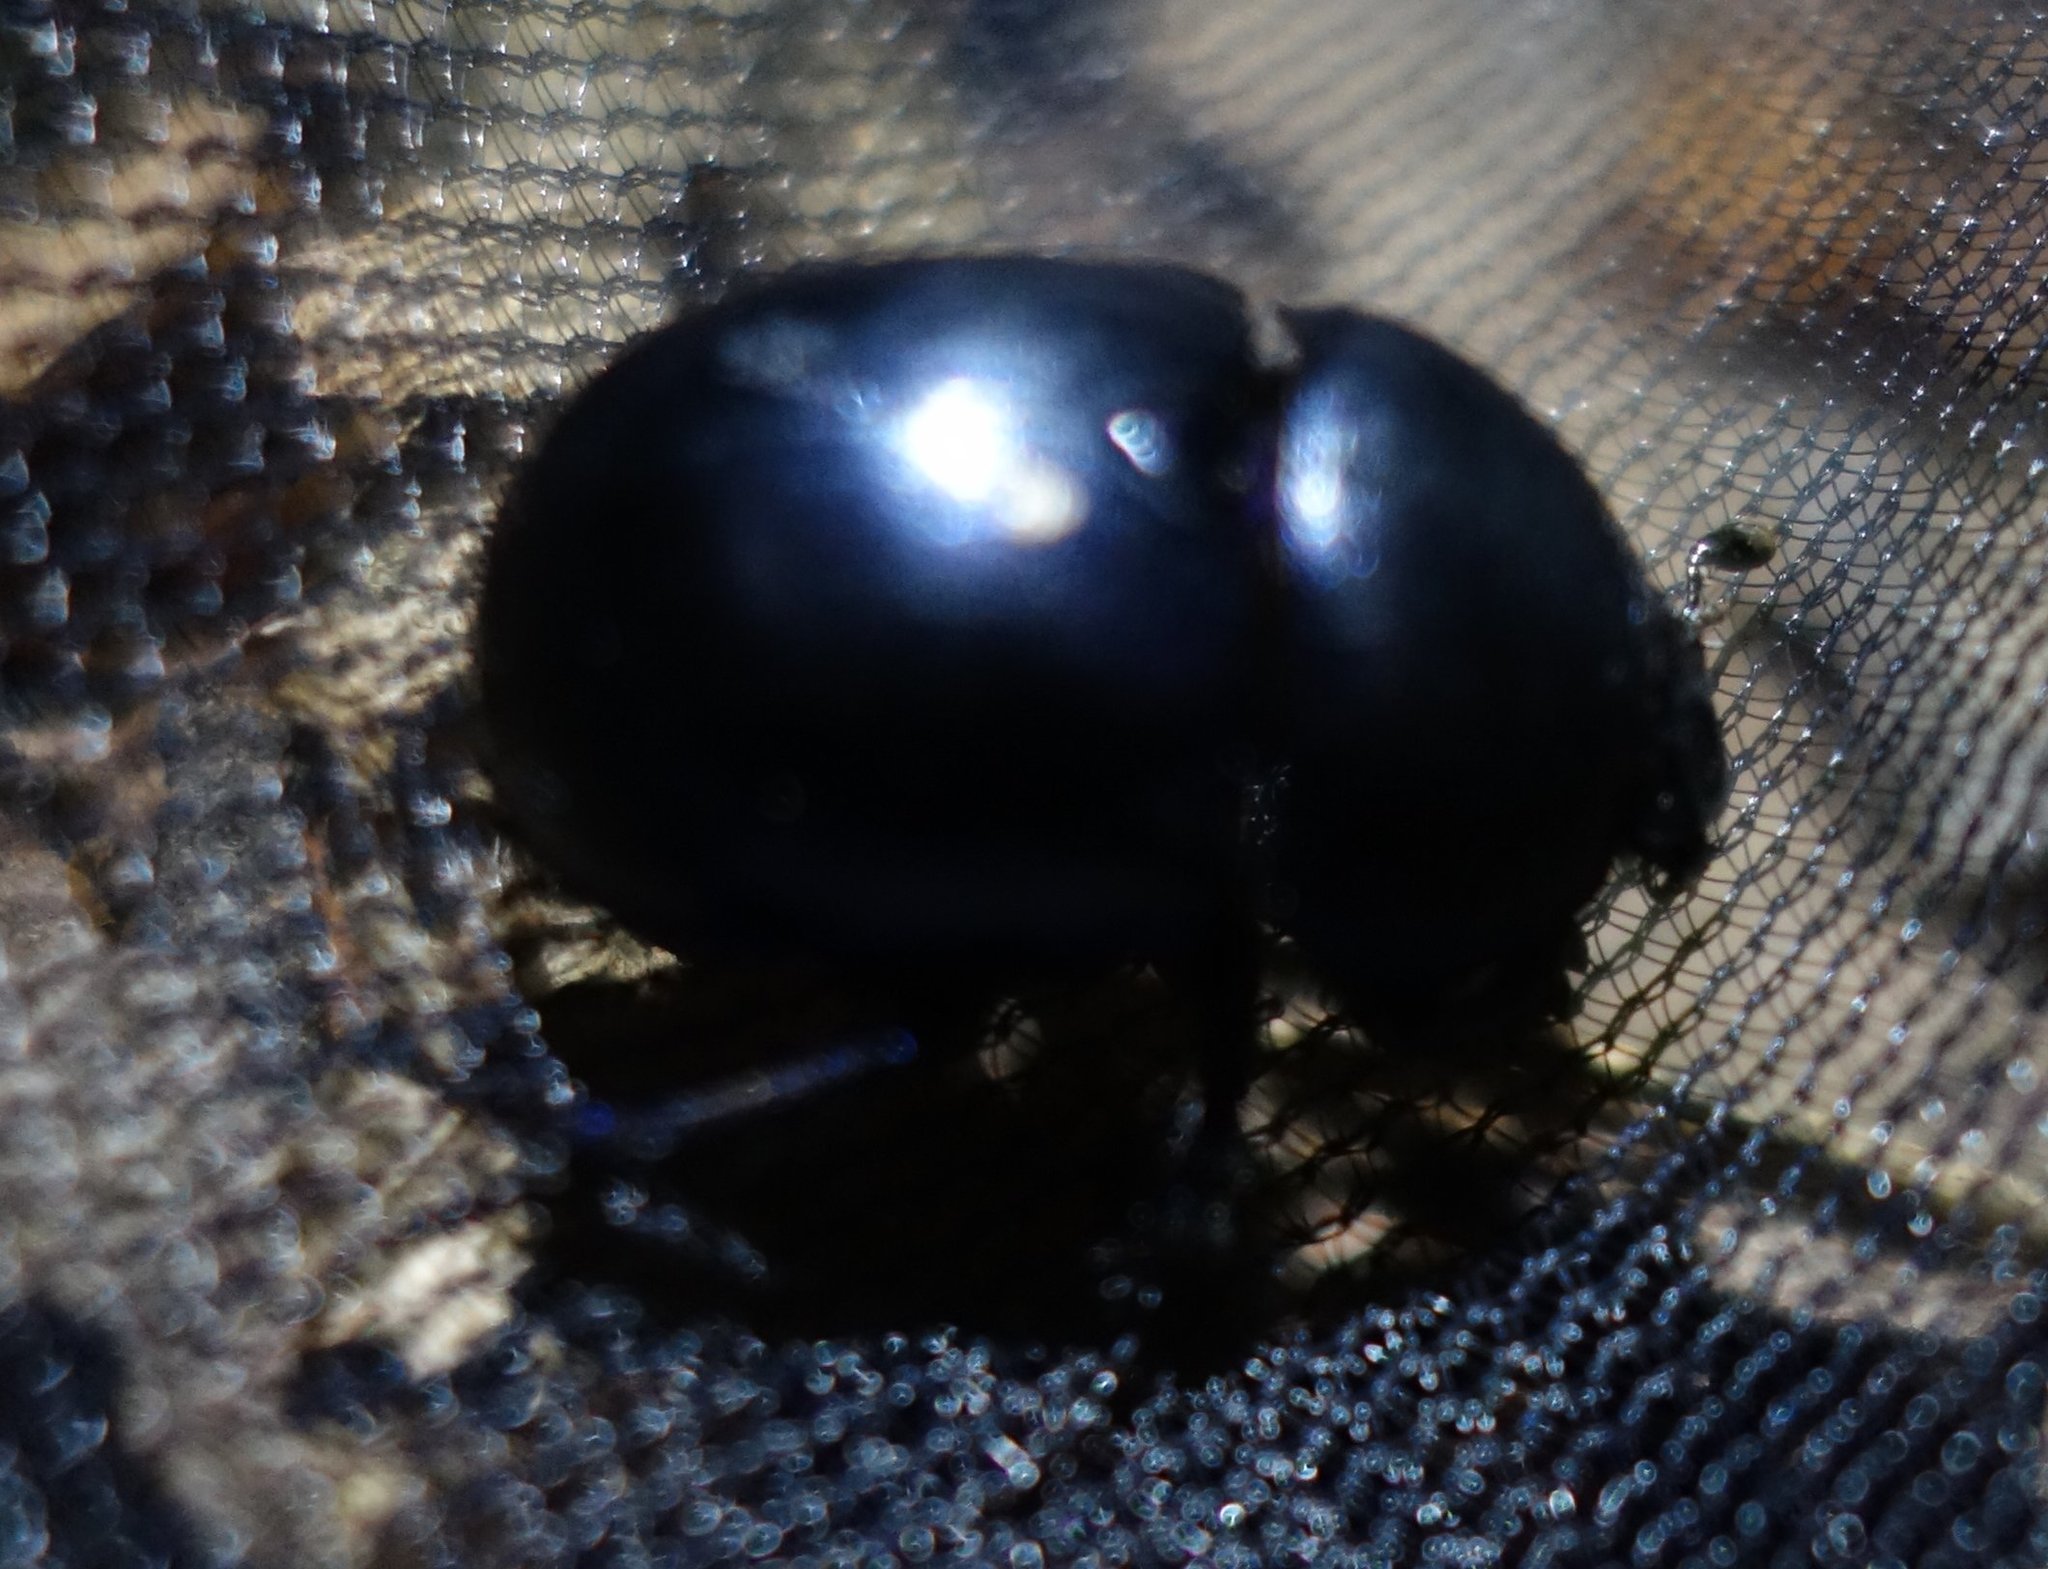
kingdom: Animalia
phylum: Arthropoda
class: Insecta
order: Coleoptera
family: Geotrupidae
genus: Trypocopris
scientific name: Trypocopris vernalis
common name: Spring dumbledor
